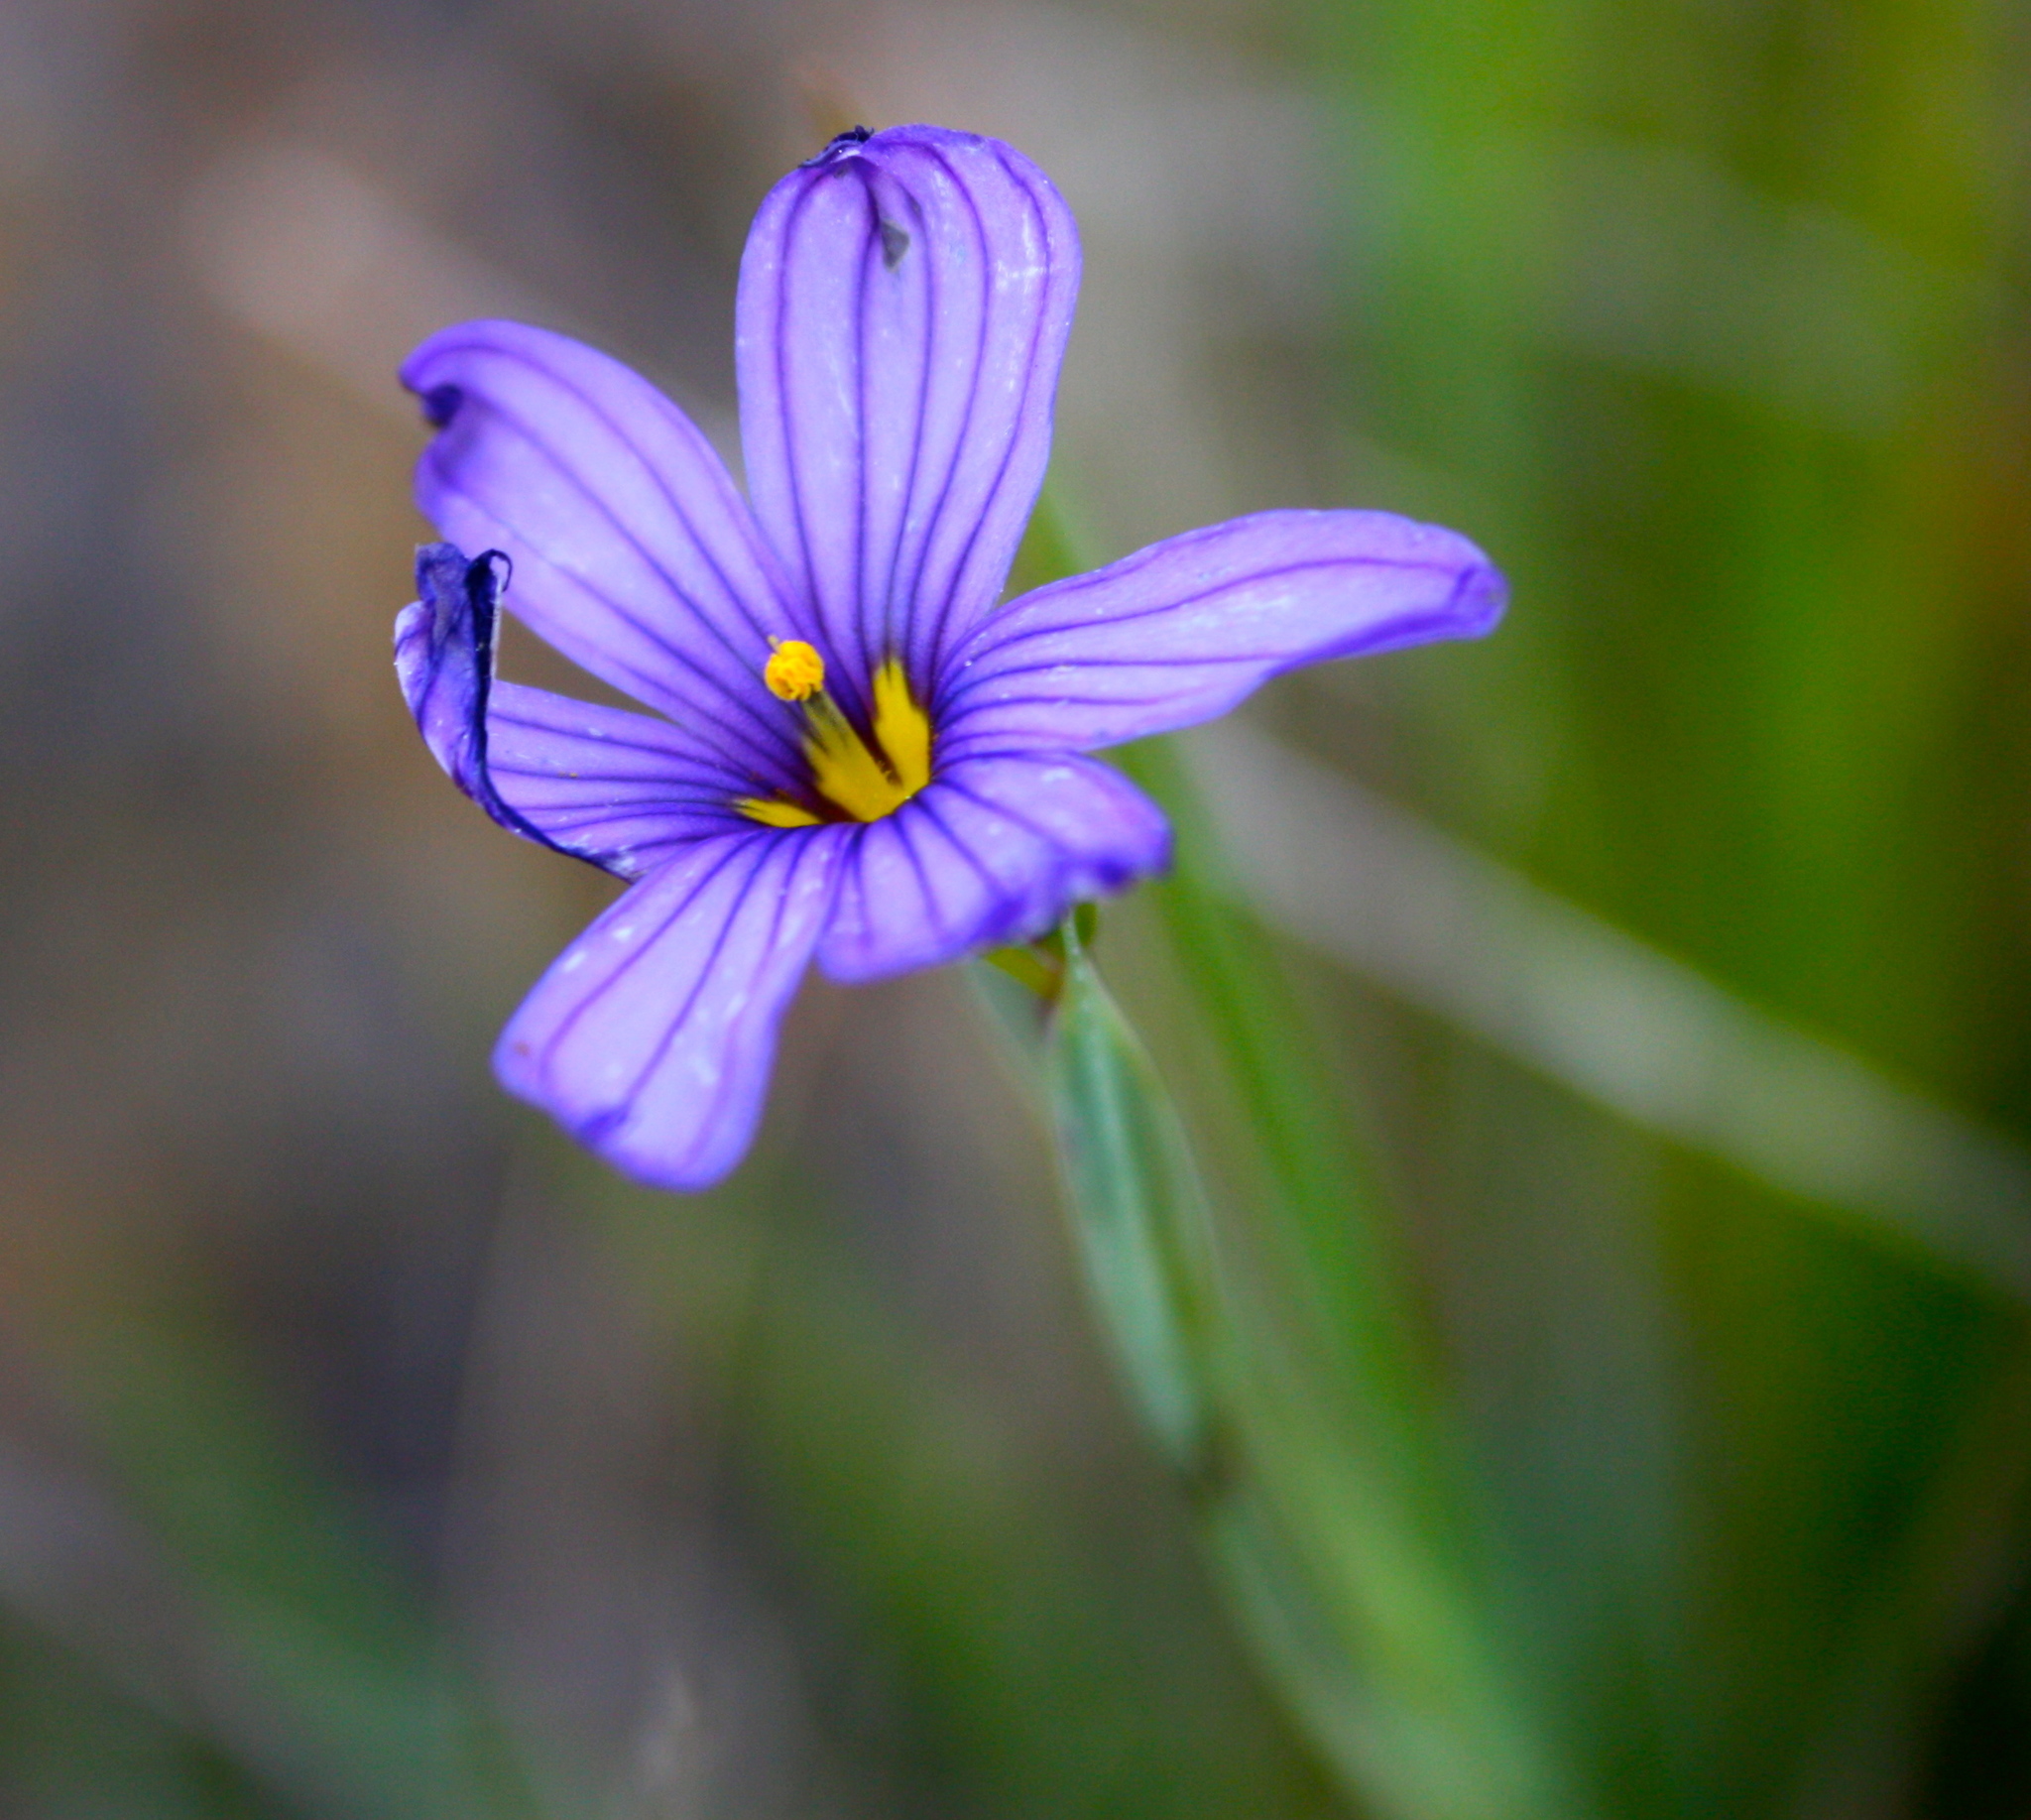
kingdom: Plantae
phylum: Tracheophyta
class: Liliopsida
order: Asparagales
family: Iridaceae
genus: Sisyrinchium
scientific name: Sisyrinchium bellum
